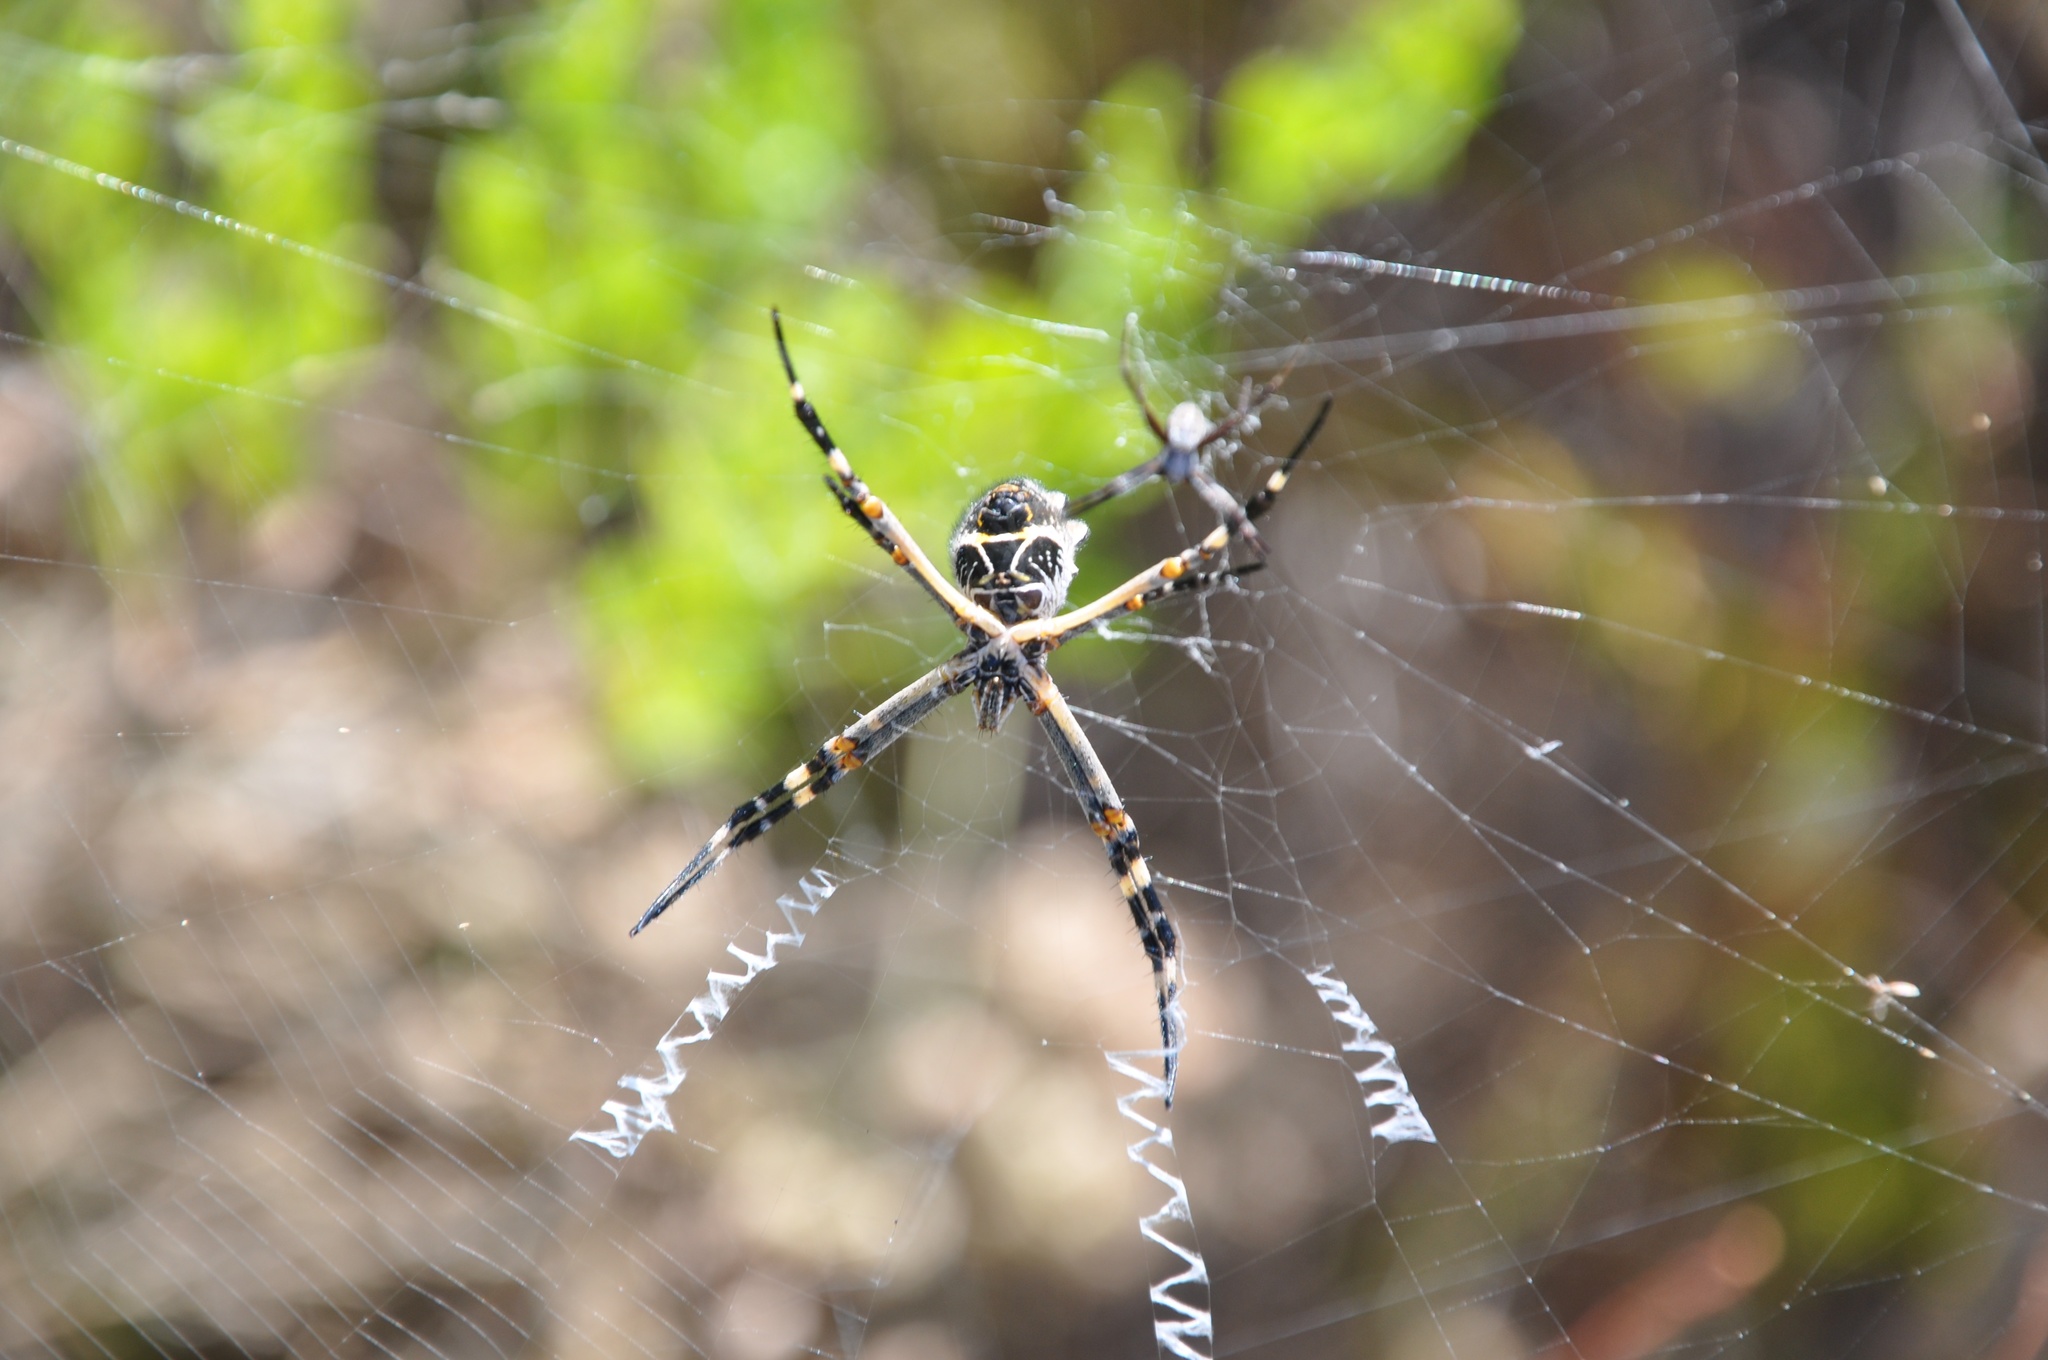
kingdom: Animalia
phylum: Arthropoda
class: Arachnida
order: Araneae
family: Araneidae
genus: Argiope
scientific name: Argiope argentata
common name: Orb weavers
